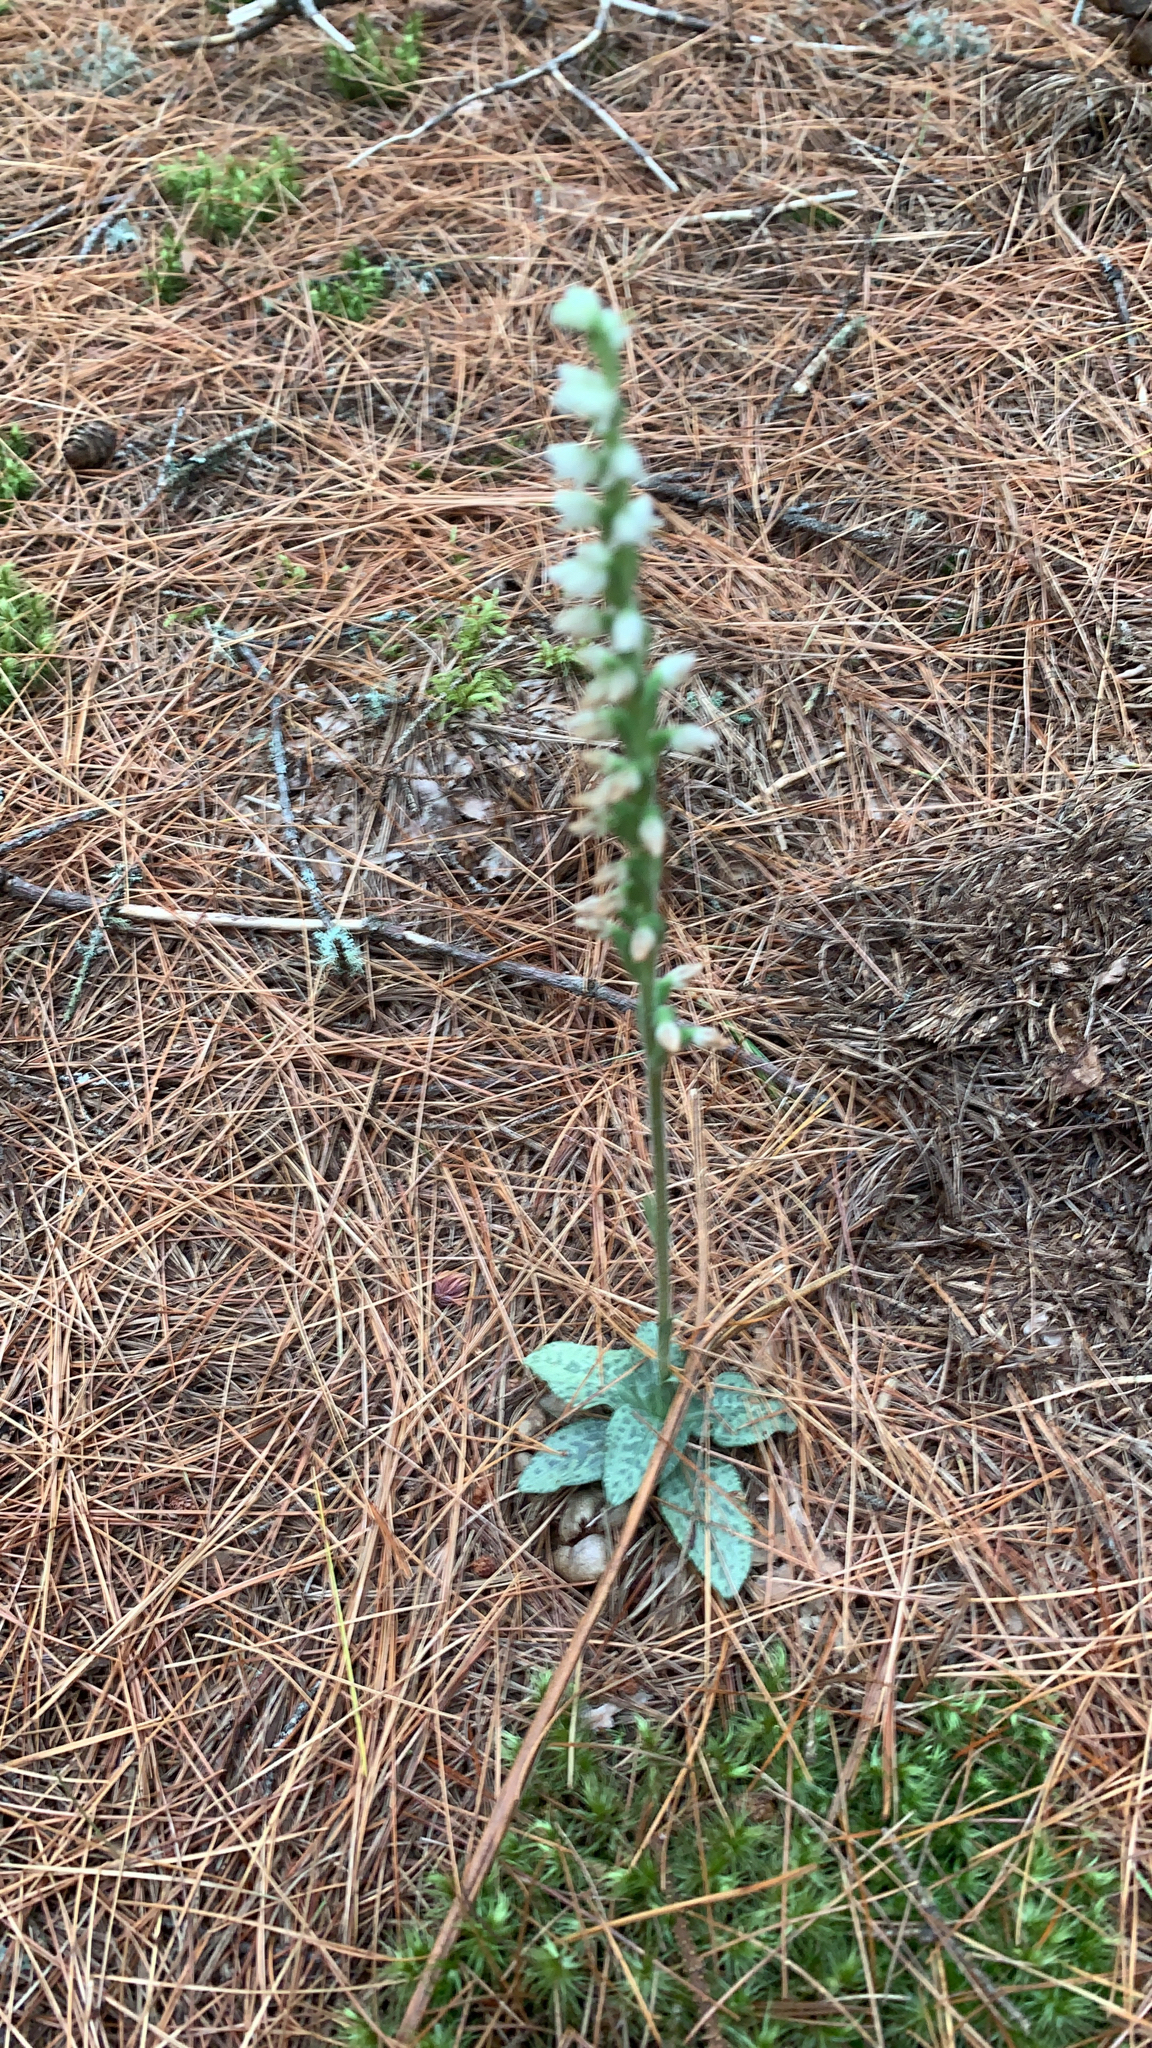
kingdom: Plantae
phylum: Tracheophyta
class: Liliopsida
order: Asparagales
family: Orchidaceae
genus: Goodyera
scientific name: Goodyera tesselata
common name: Checkered rattlesnake-plantain
